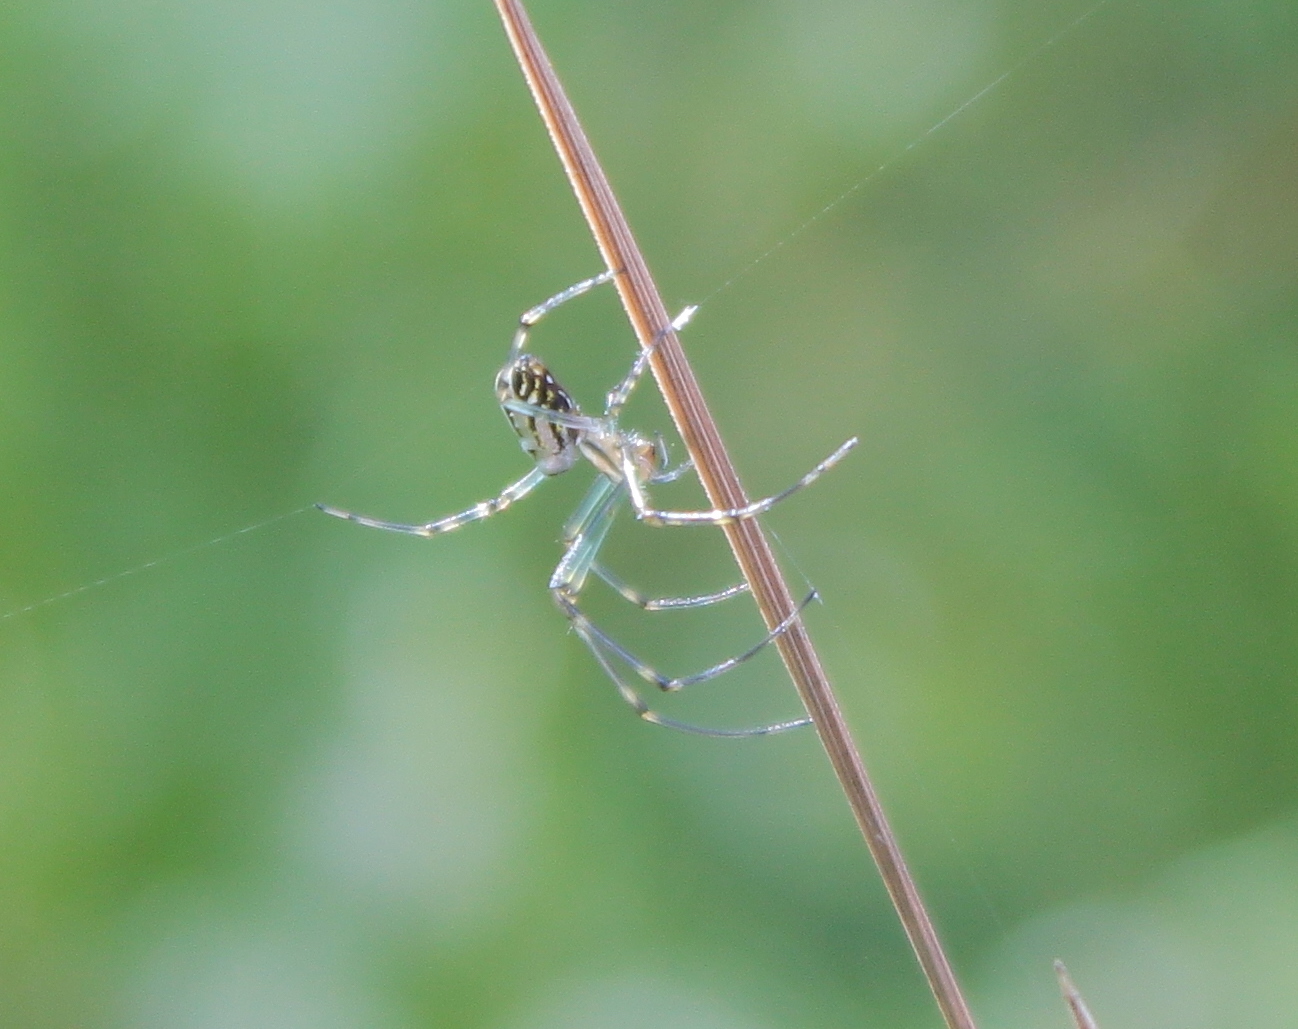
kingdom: Animalia
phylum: Arthropoda
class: Arachnida
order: Araneae
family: Tetragnathidae
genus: Leucauge
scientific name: Leucauge dromedaria
